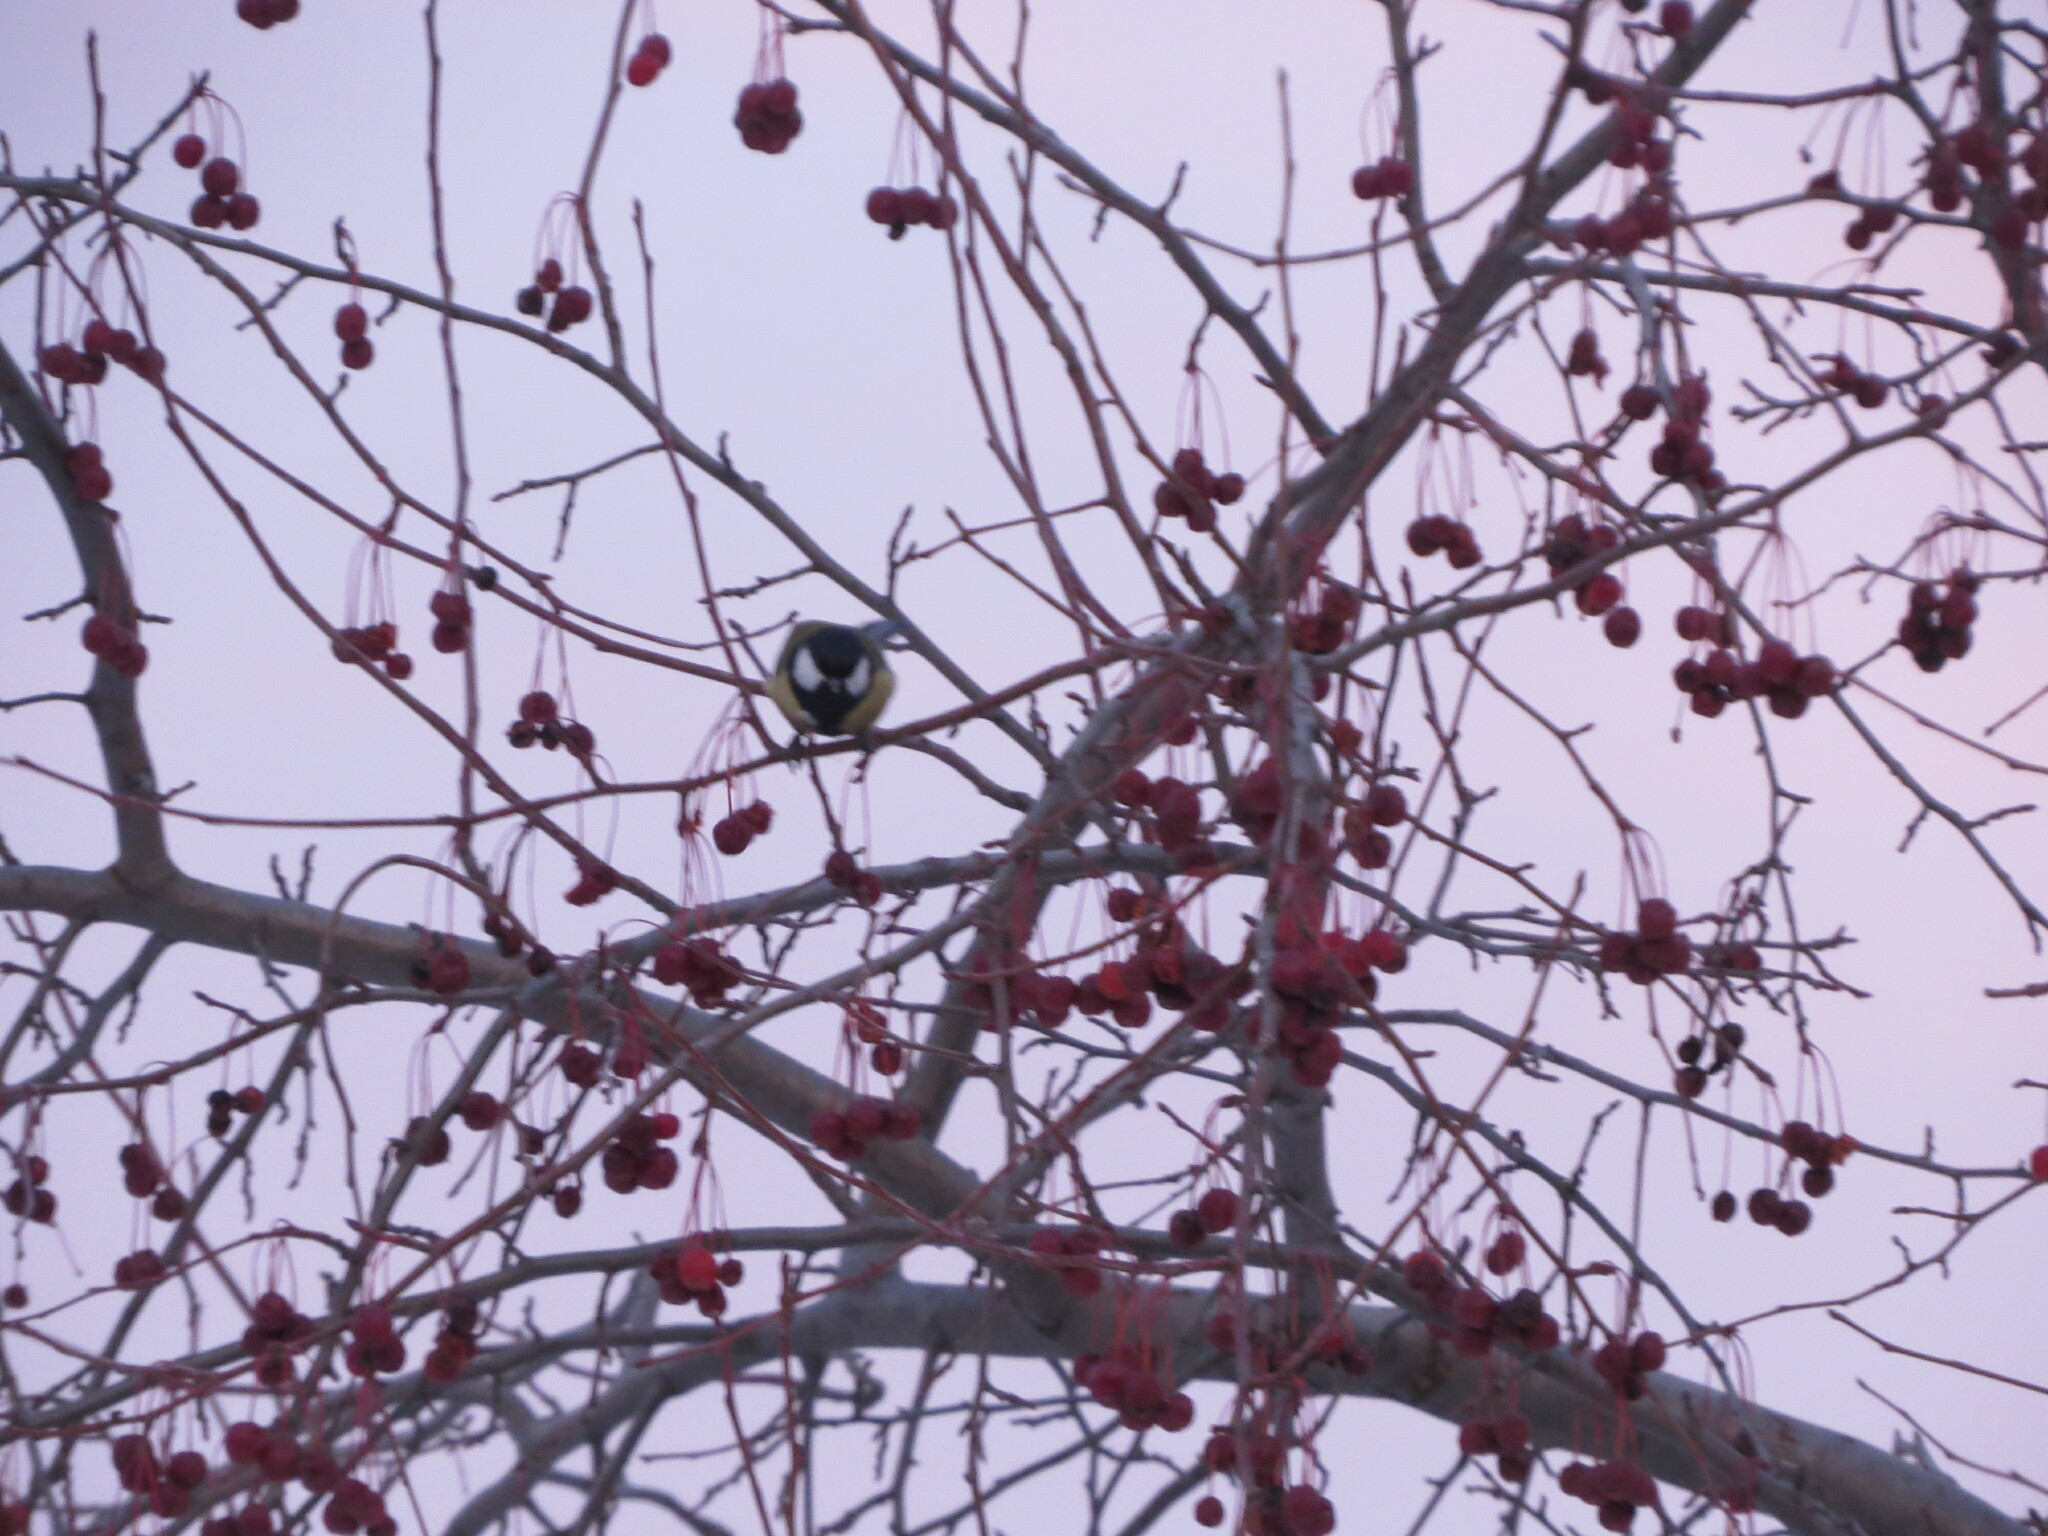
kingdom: Animalia
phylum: Chordata
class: Aves
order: Passeriformes
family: Paridae
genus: Parus
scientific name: Parus major
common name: Great tit
